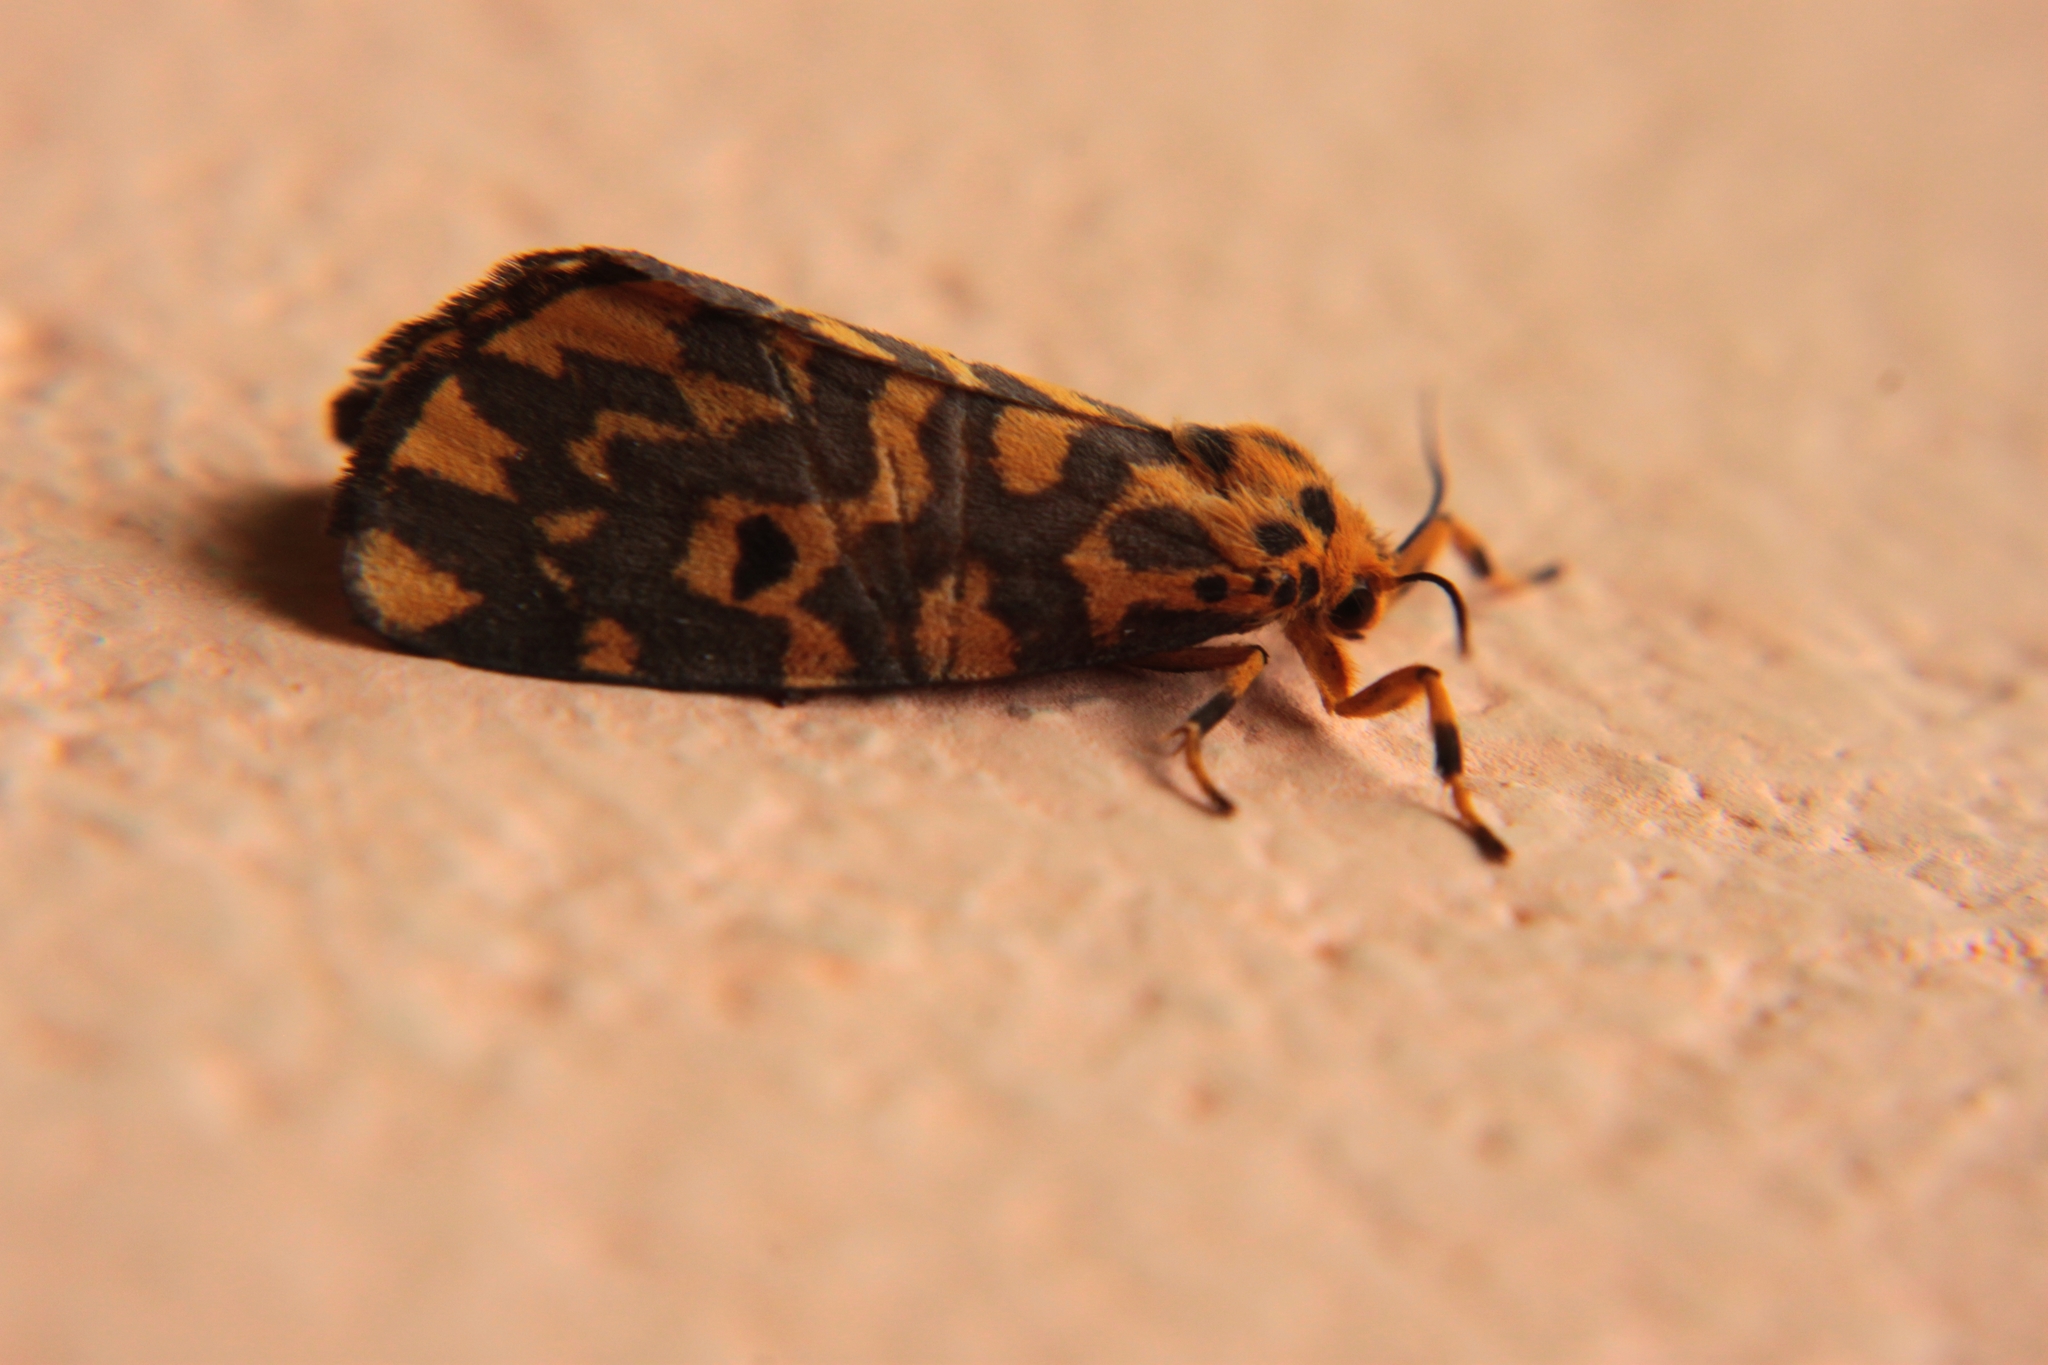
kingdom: Animalia
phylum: Arthropoda
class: Insecta
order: Lepidoptera
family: Erebidae
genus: Nepita
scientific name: Nepita conferta
